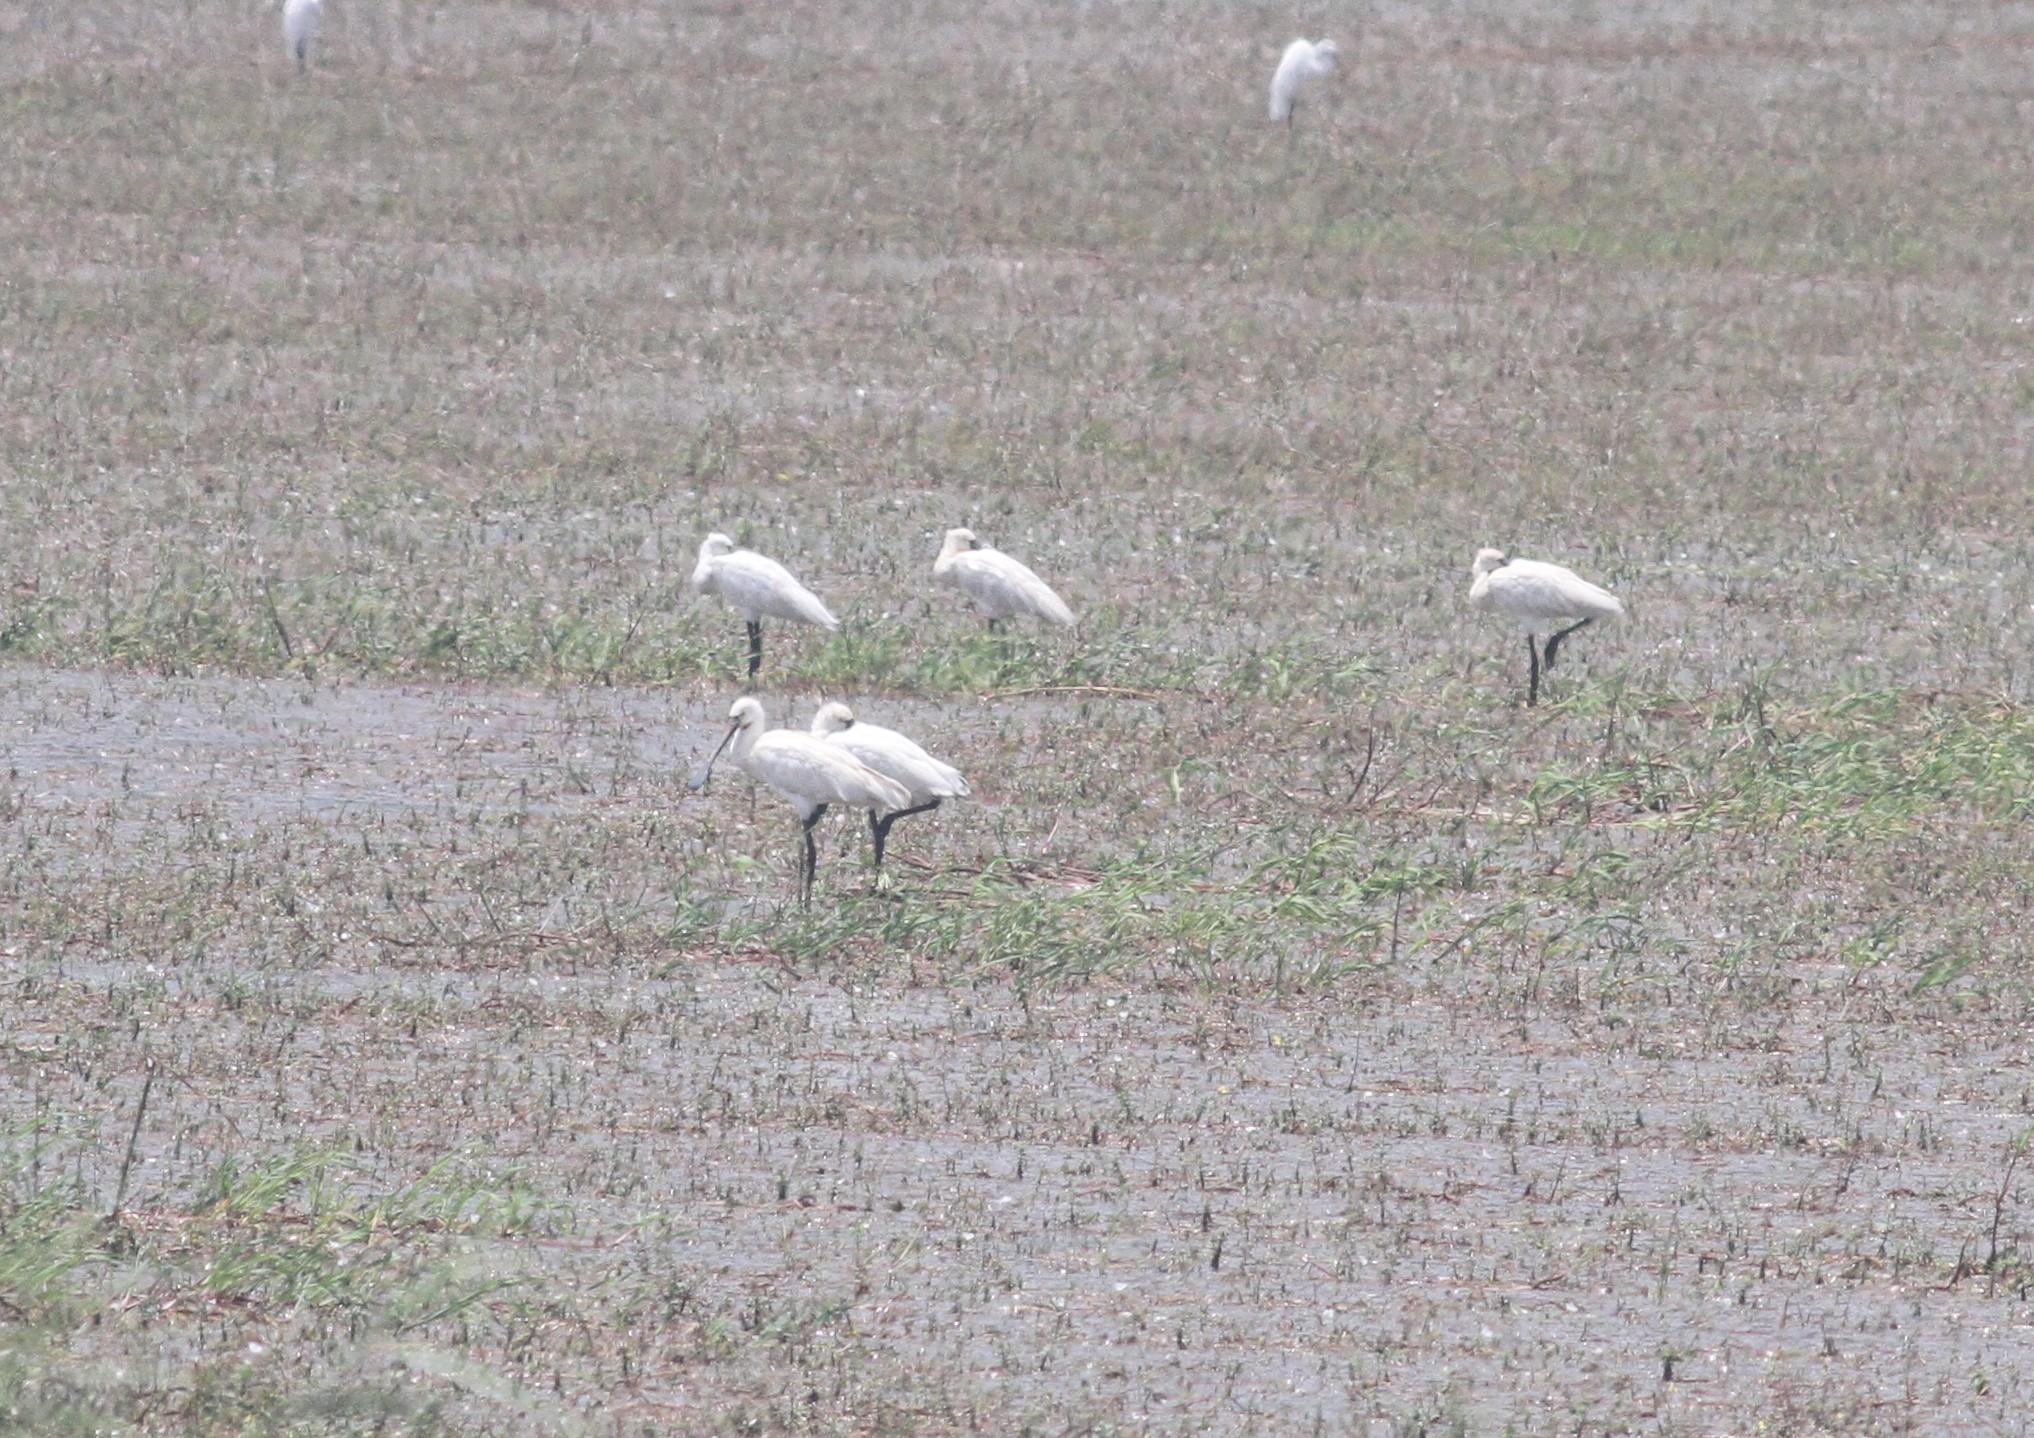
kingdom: Animalia
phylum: Chordata
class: Aves
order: Pelecaniformes
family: Threskiornithidae
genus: Platalea
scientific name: Platalea leucorodia
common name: Eurasian spoonbill
